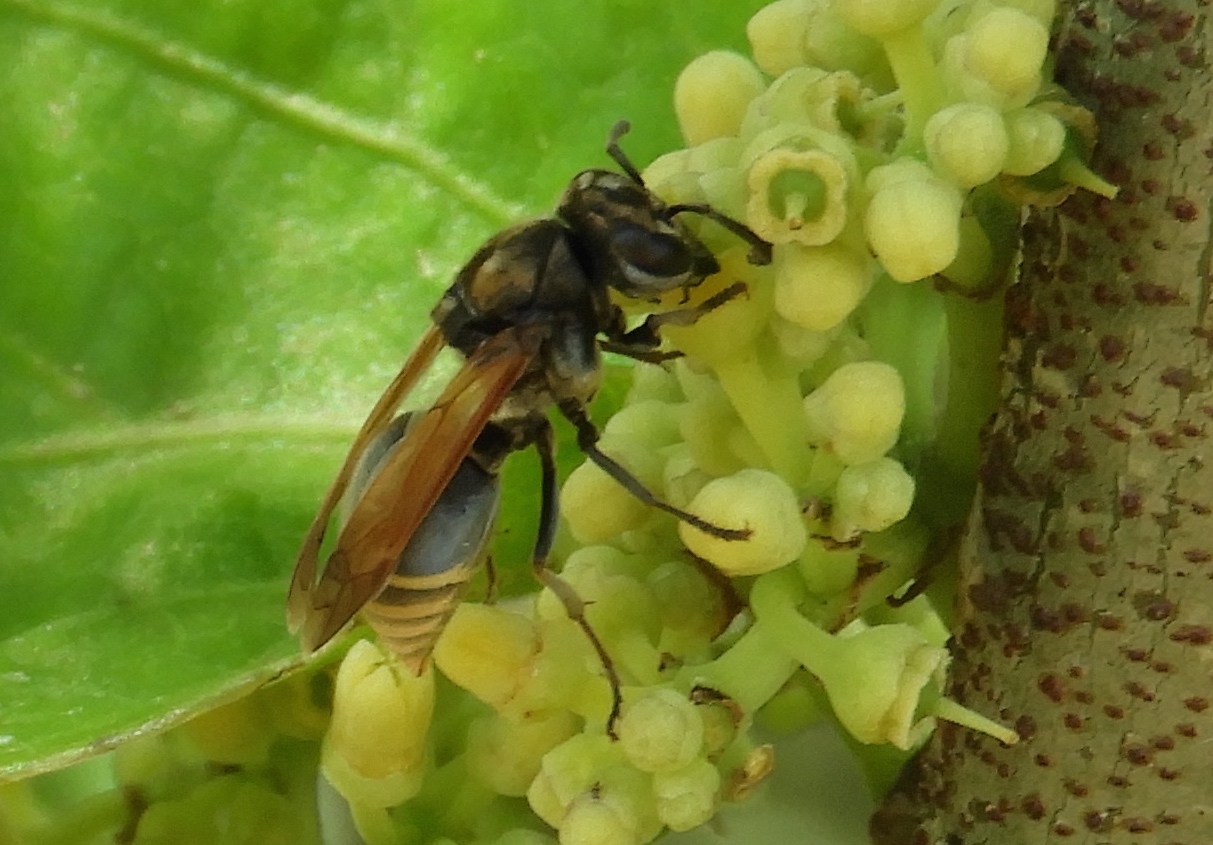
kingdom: Animalia
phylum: Arthropoda
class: Insecta
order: Hymenoptera
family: Vespidae
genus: Brachygastra
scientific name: Brachygastra mellifica
